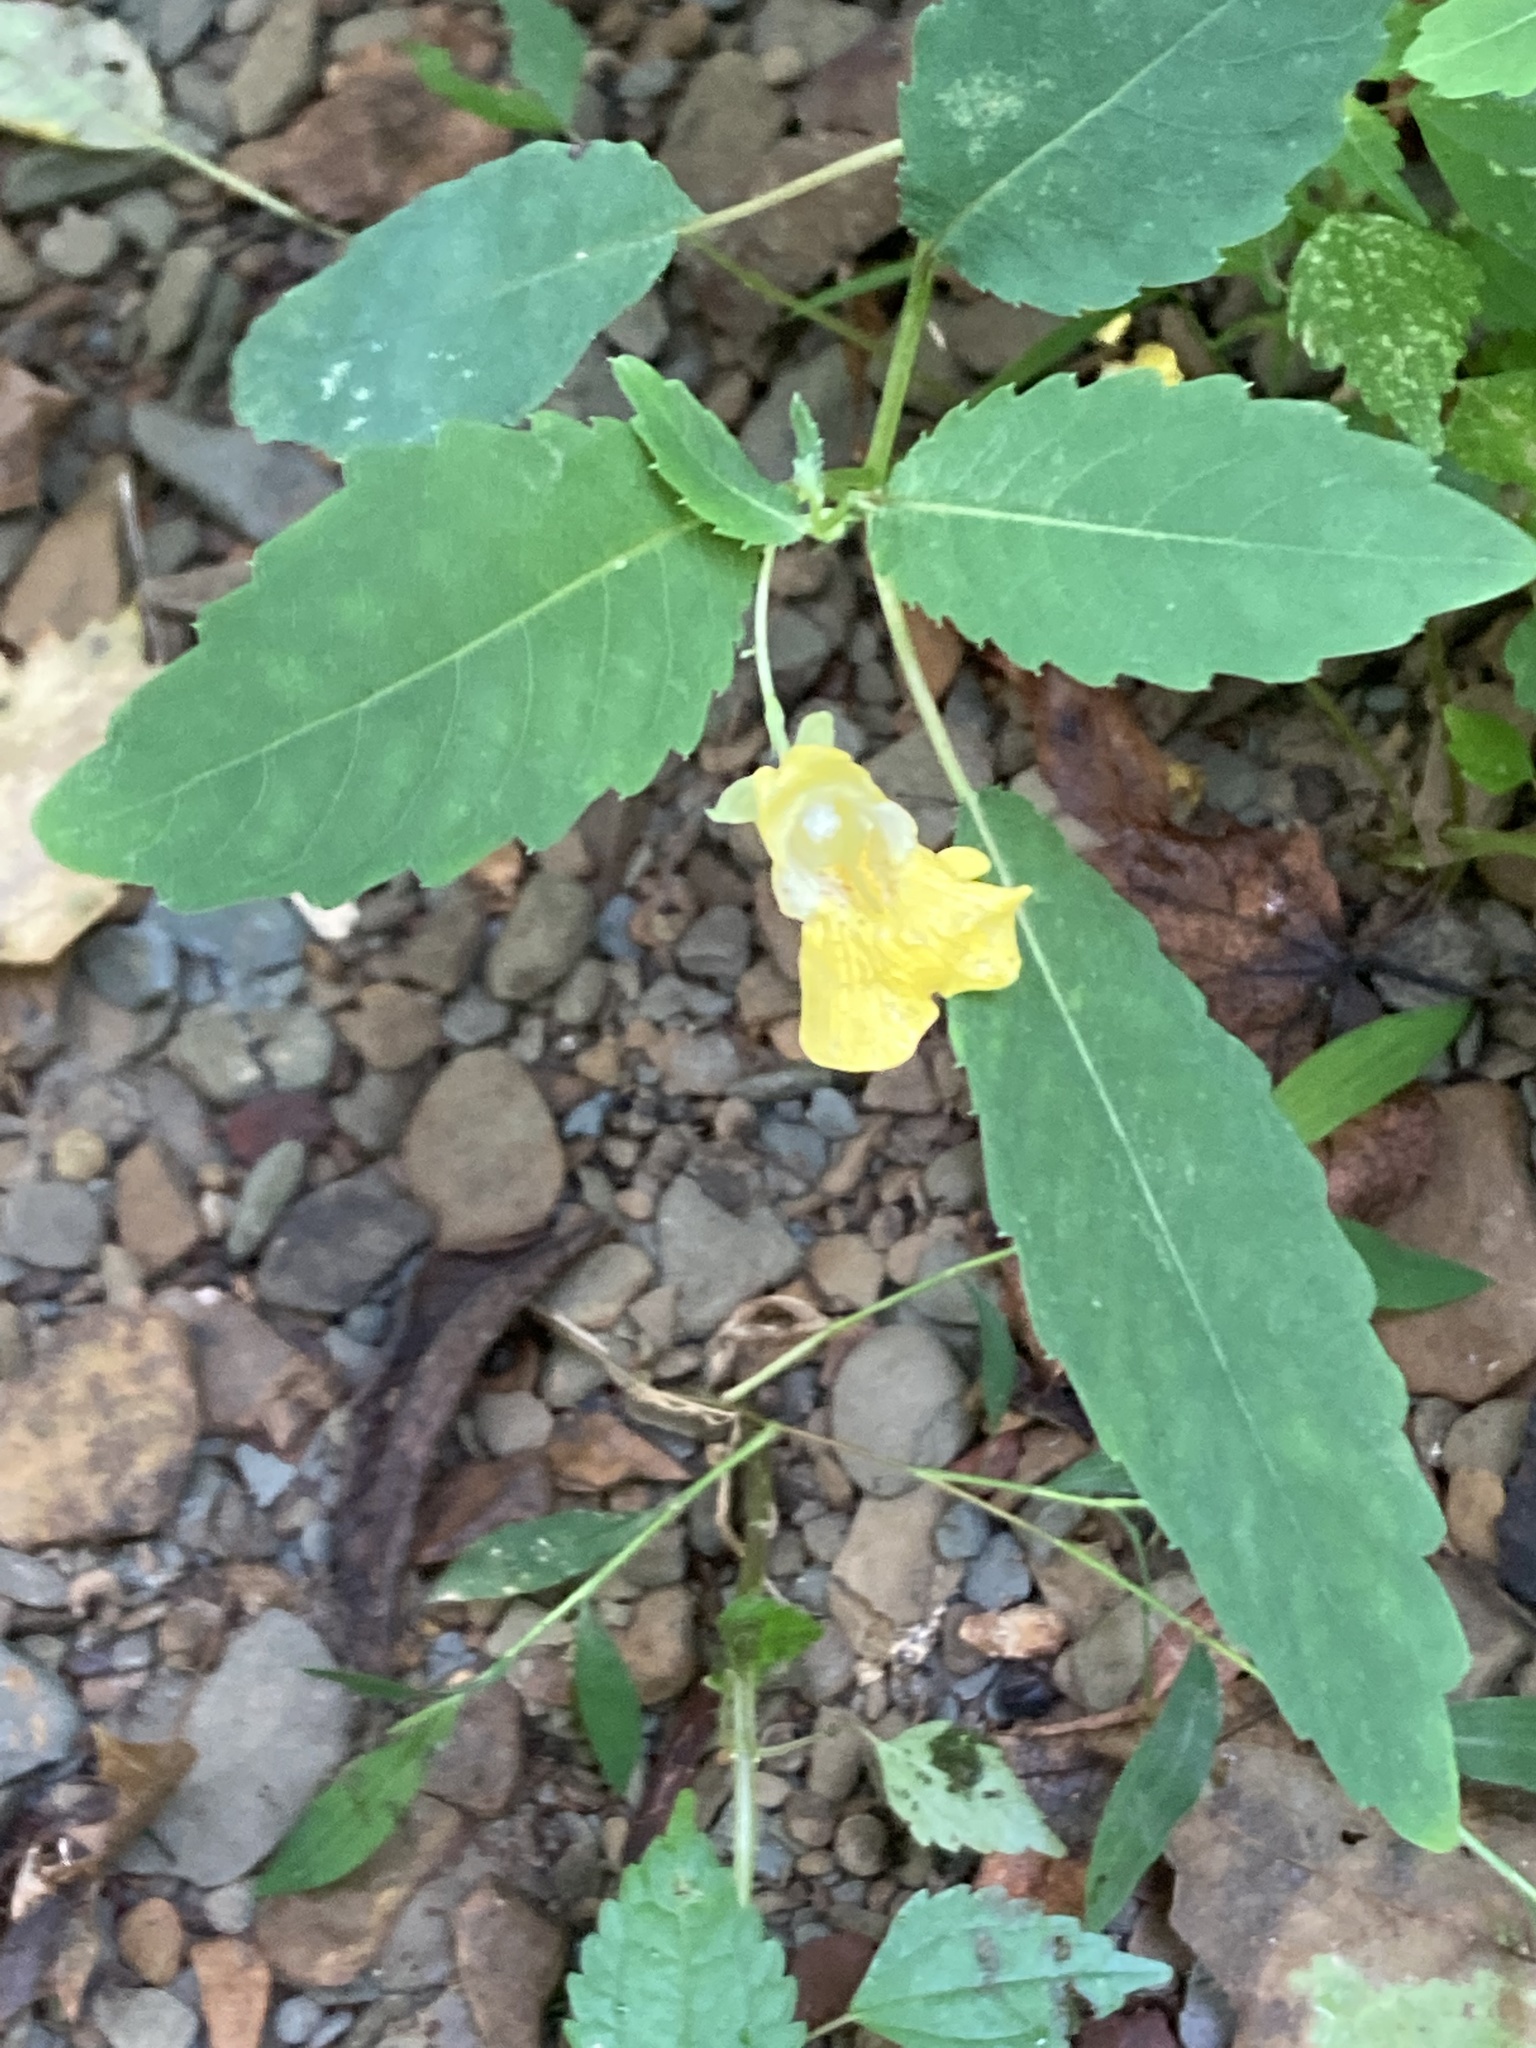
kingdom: Plantae
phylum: Tracheophyta
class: Magnoliopsida
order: Ericales
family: Balsaminaceae
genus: Impatiens
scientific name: Impatiens pallida
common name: Pale snapweed
